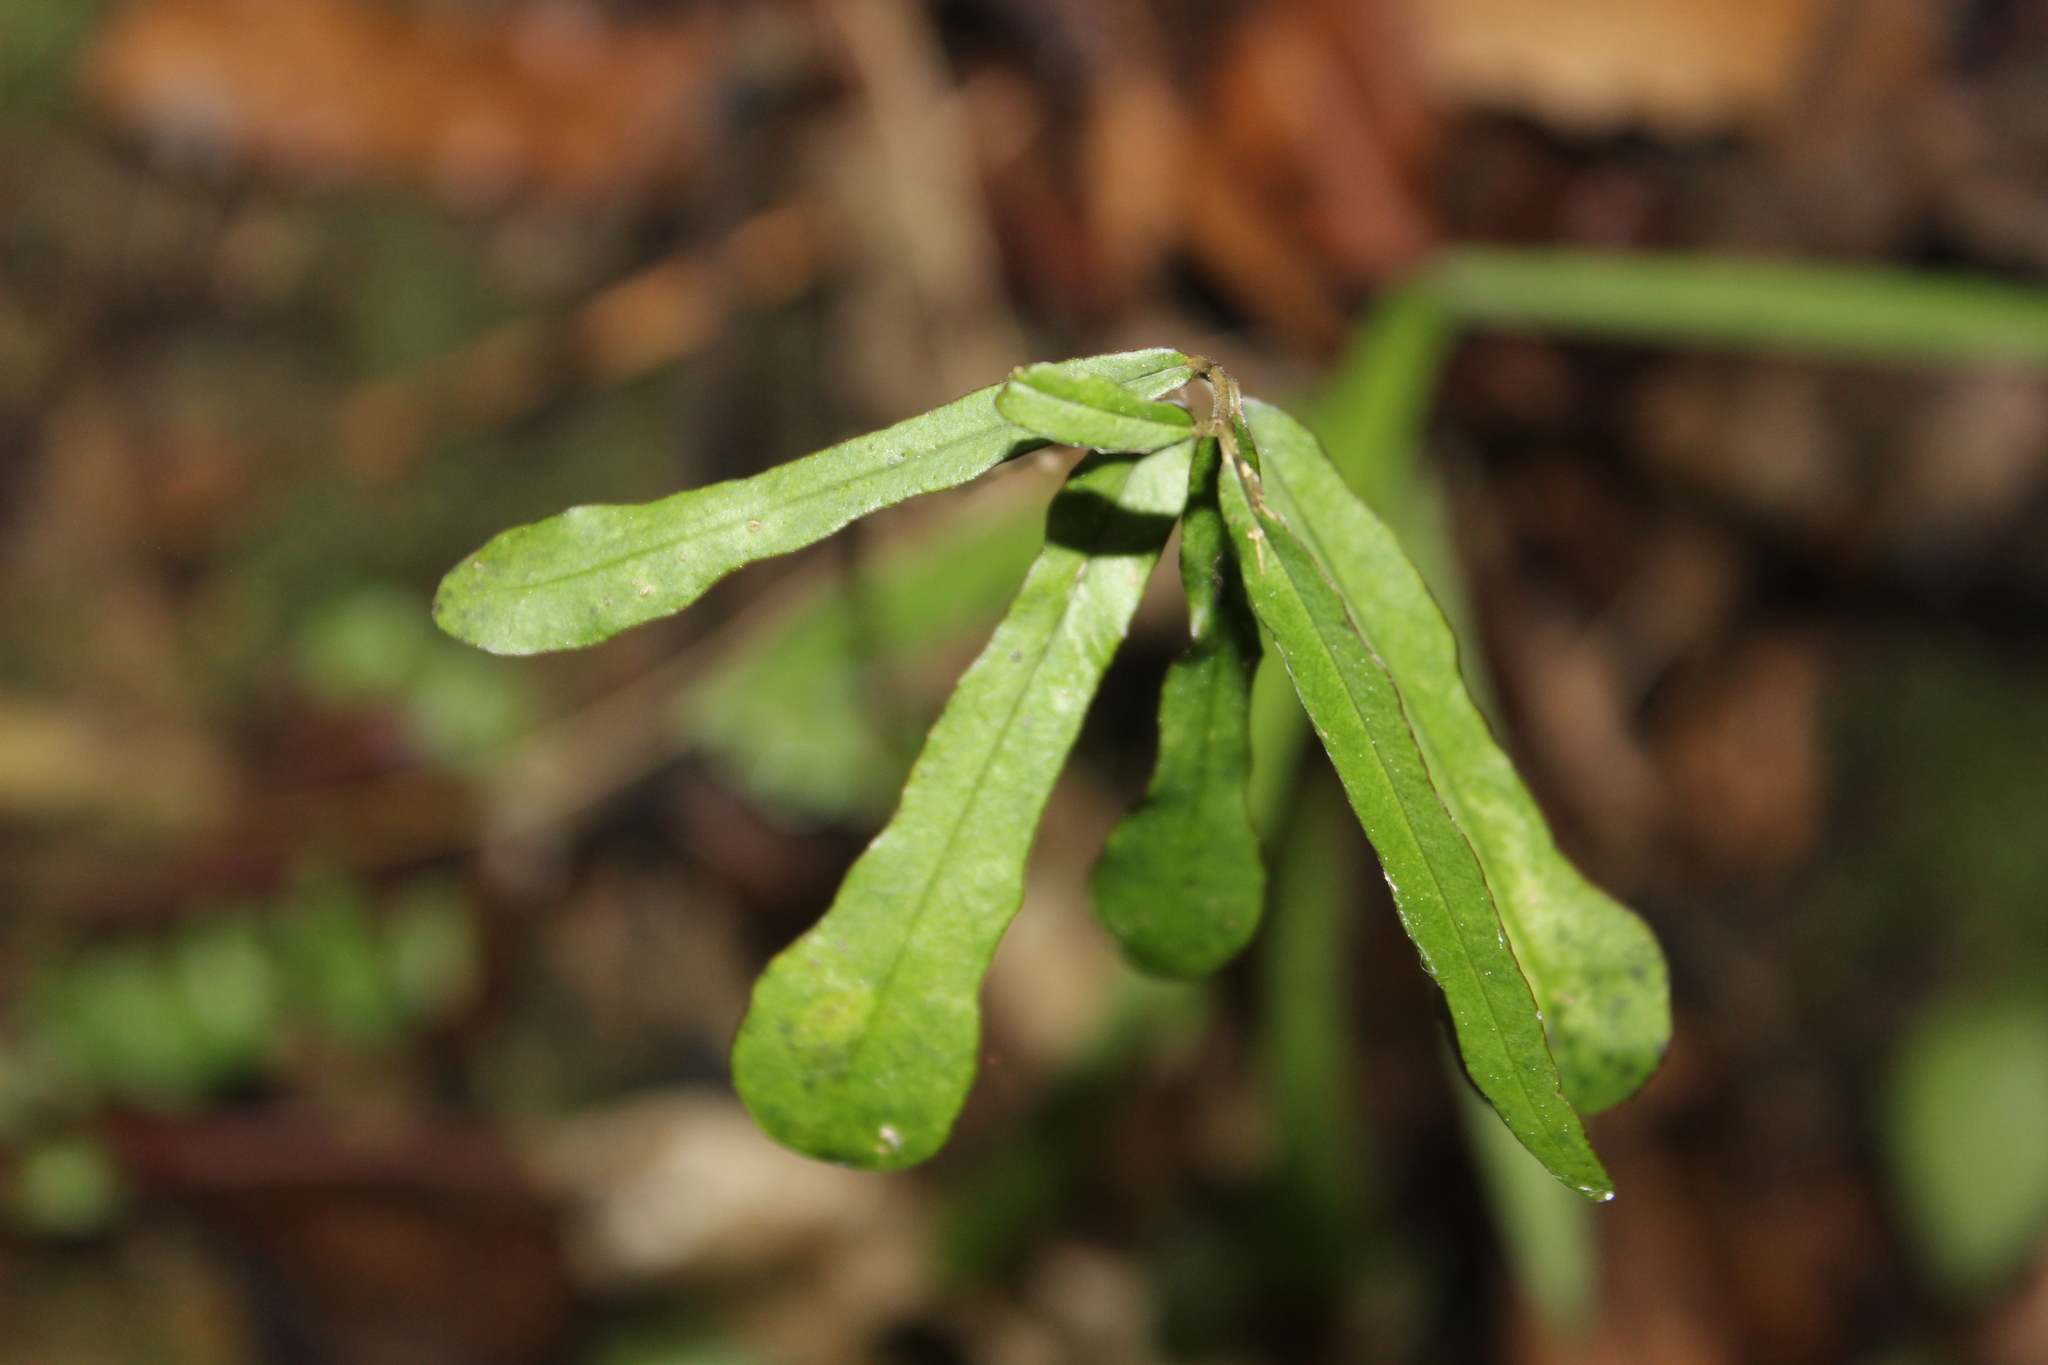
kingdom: Plantae
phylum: Tracheophyta
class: Magnoliopsida
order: Gentianales
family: Apocynaceae
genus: Parsonsia
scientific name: Parsonsia heterophylla
